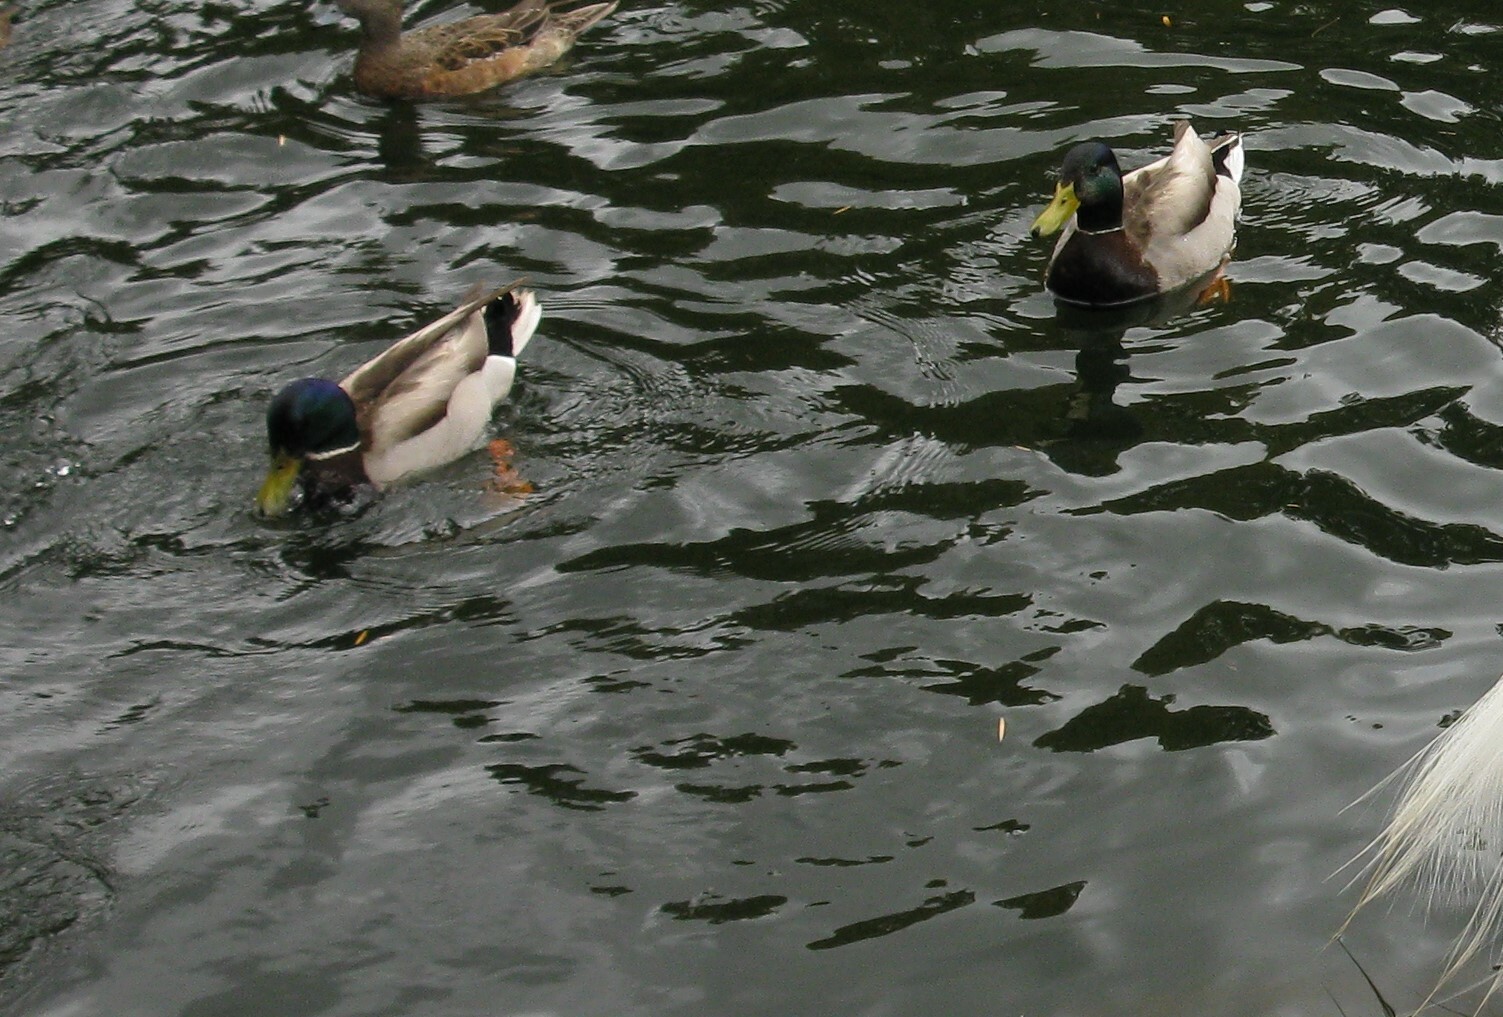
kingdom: Animalia
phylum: Chordata
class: Aves
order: Anseriformes
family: Anatidae
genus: Anas
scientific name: Anas platyrhynchos
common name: Mallard
